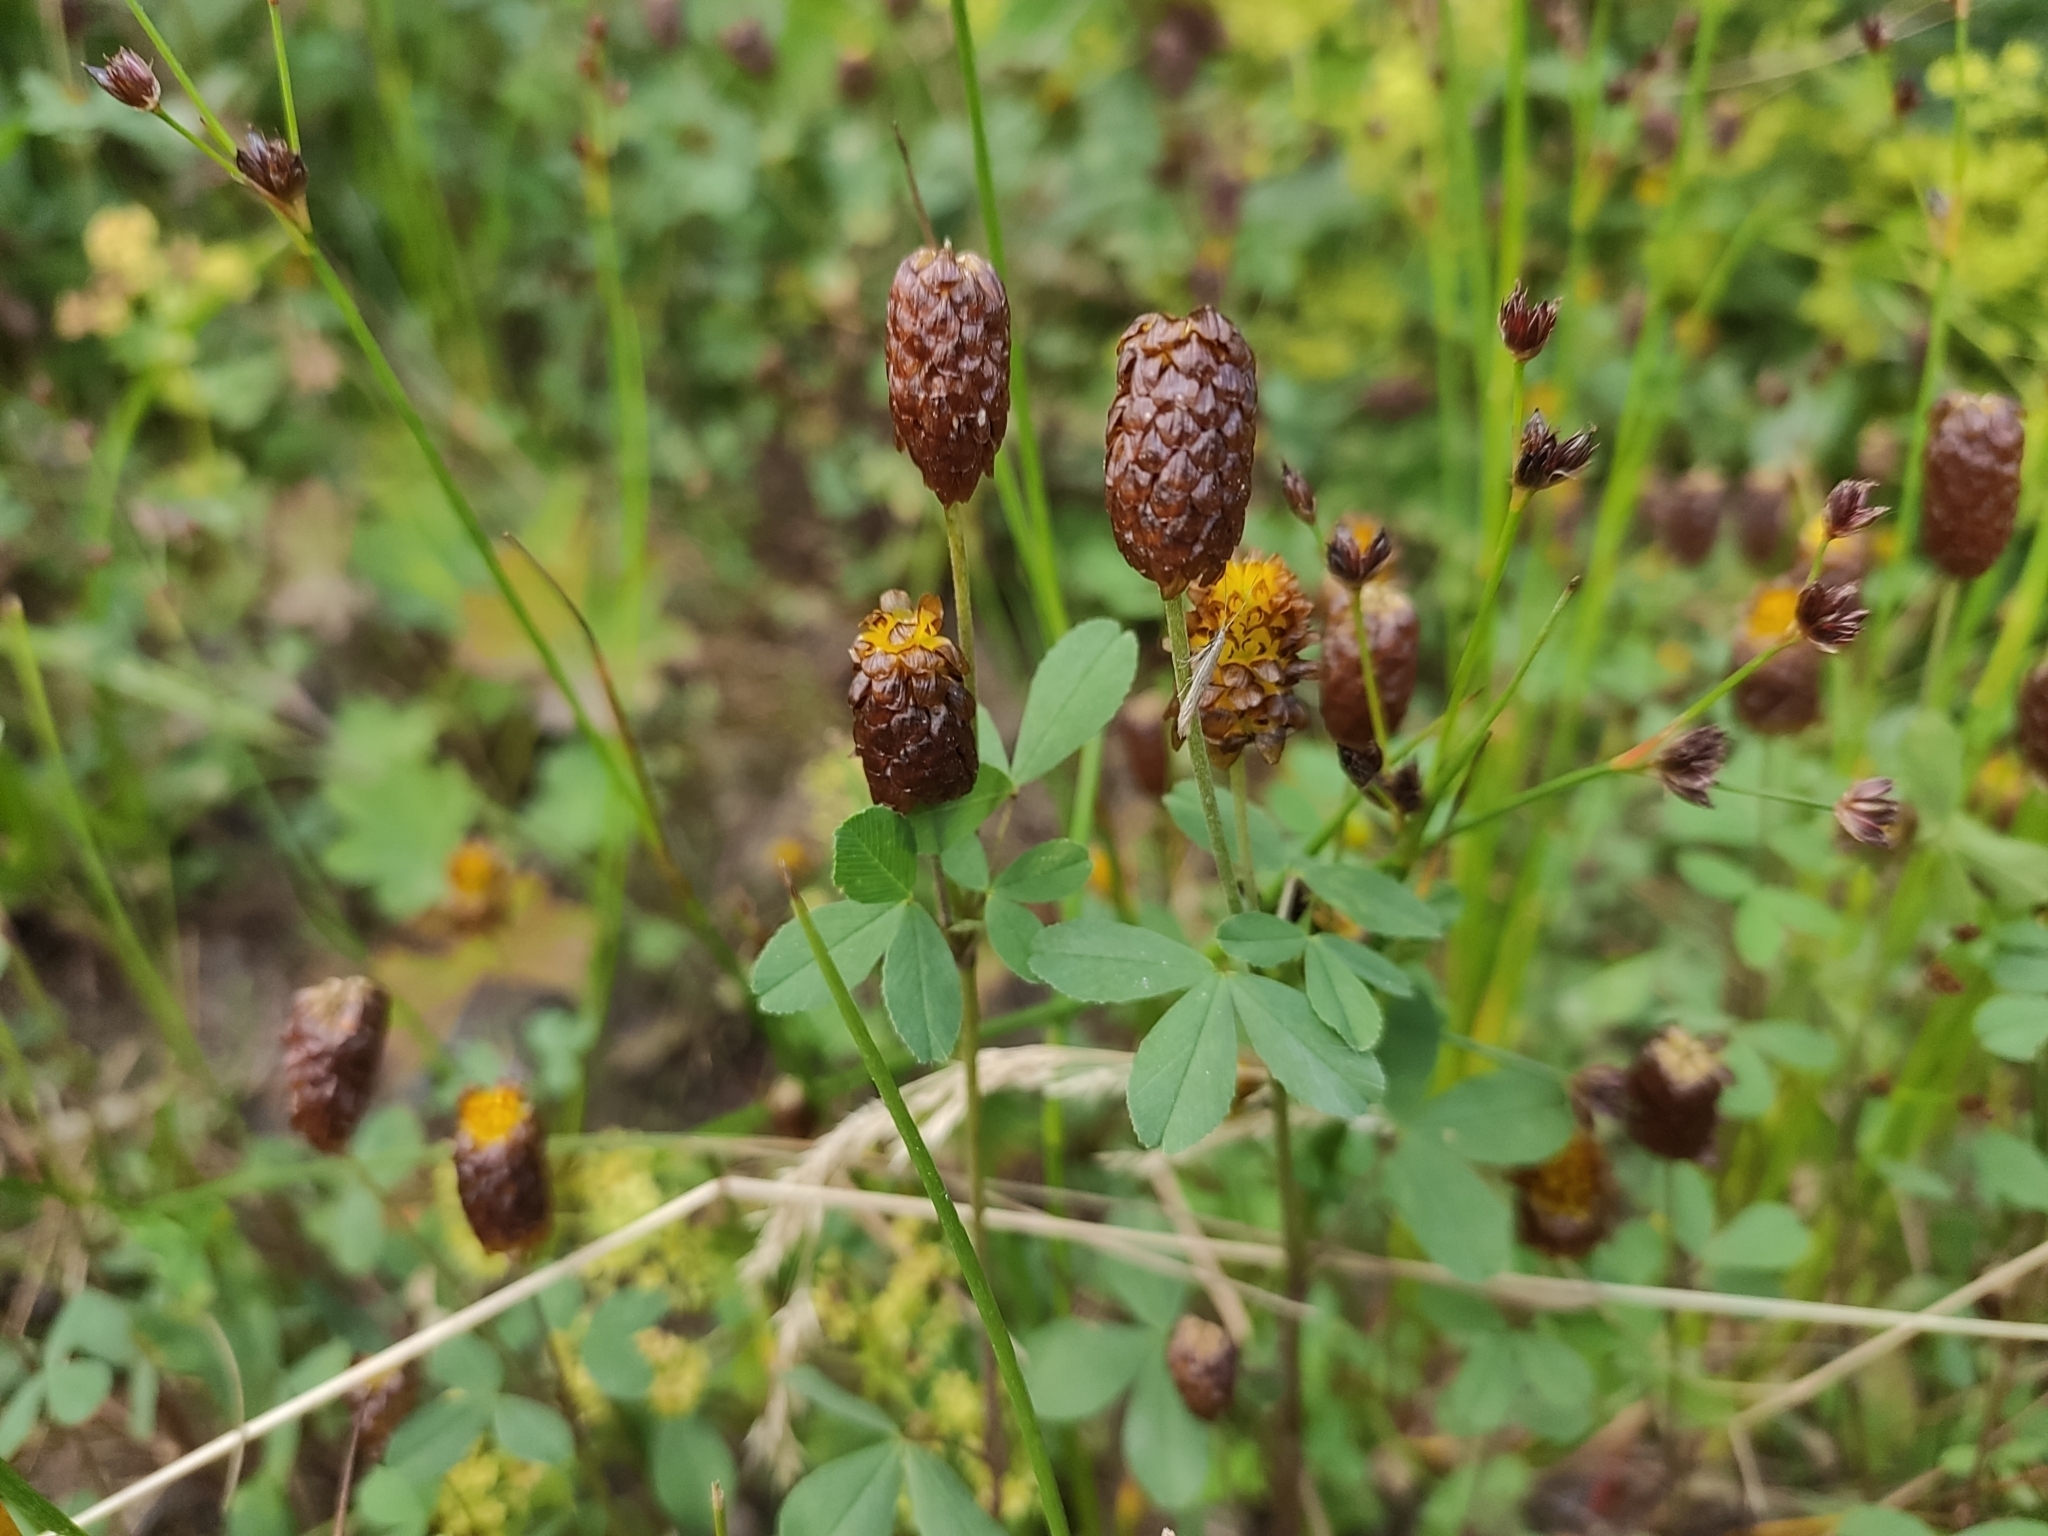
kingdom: Plantae
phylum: Tracheophyta
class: Magnoliopsida
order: Fabales
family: Fabaceae
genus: Trifolium
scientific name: Trifolium spadiceum
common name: Brown moor clover
